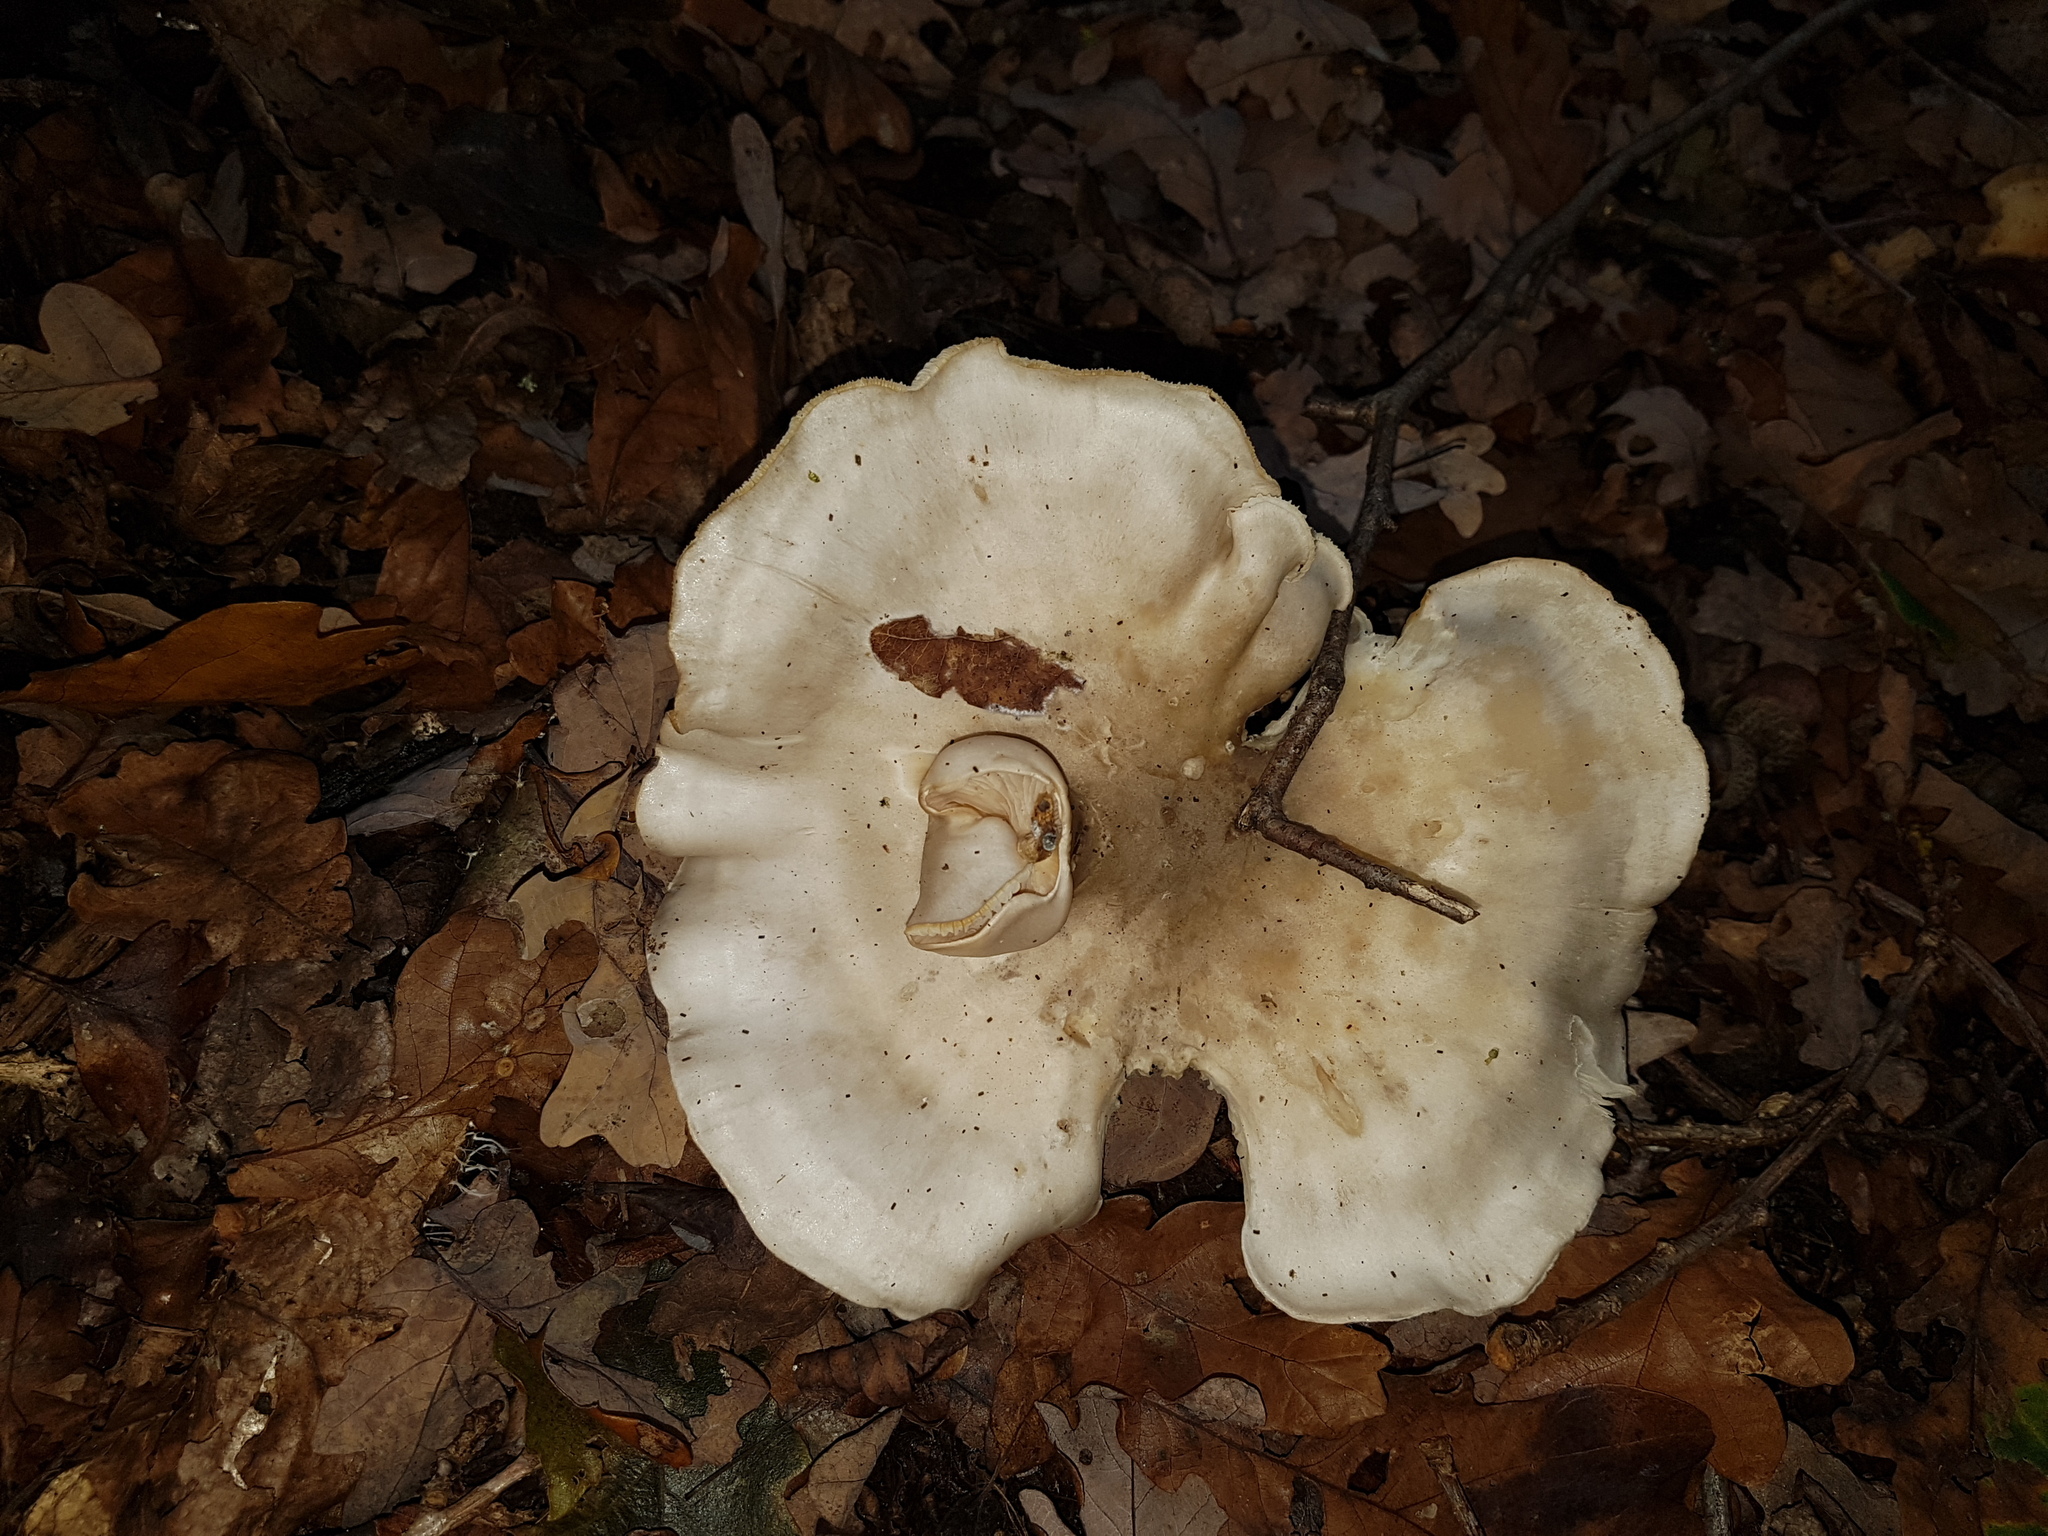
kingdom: Fungi
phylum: Basidiomycota
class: Agaricomycetes
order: Agaricales
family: Tricholomataceae
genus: Clitocybe
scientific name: Clitocybe nebularis
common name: Clouded agaric
